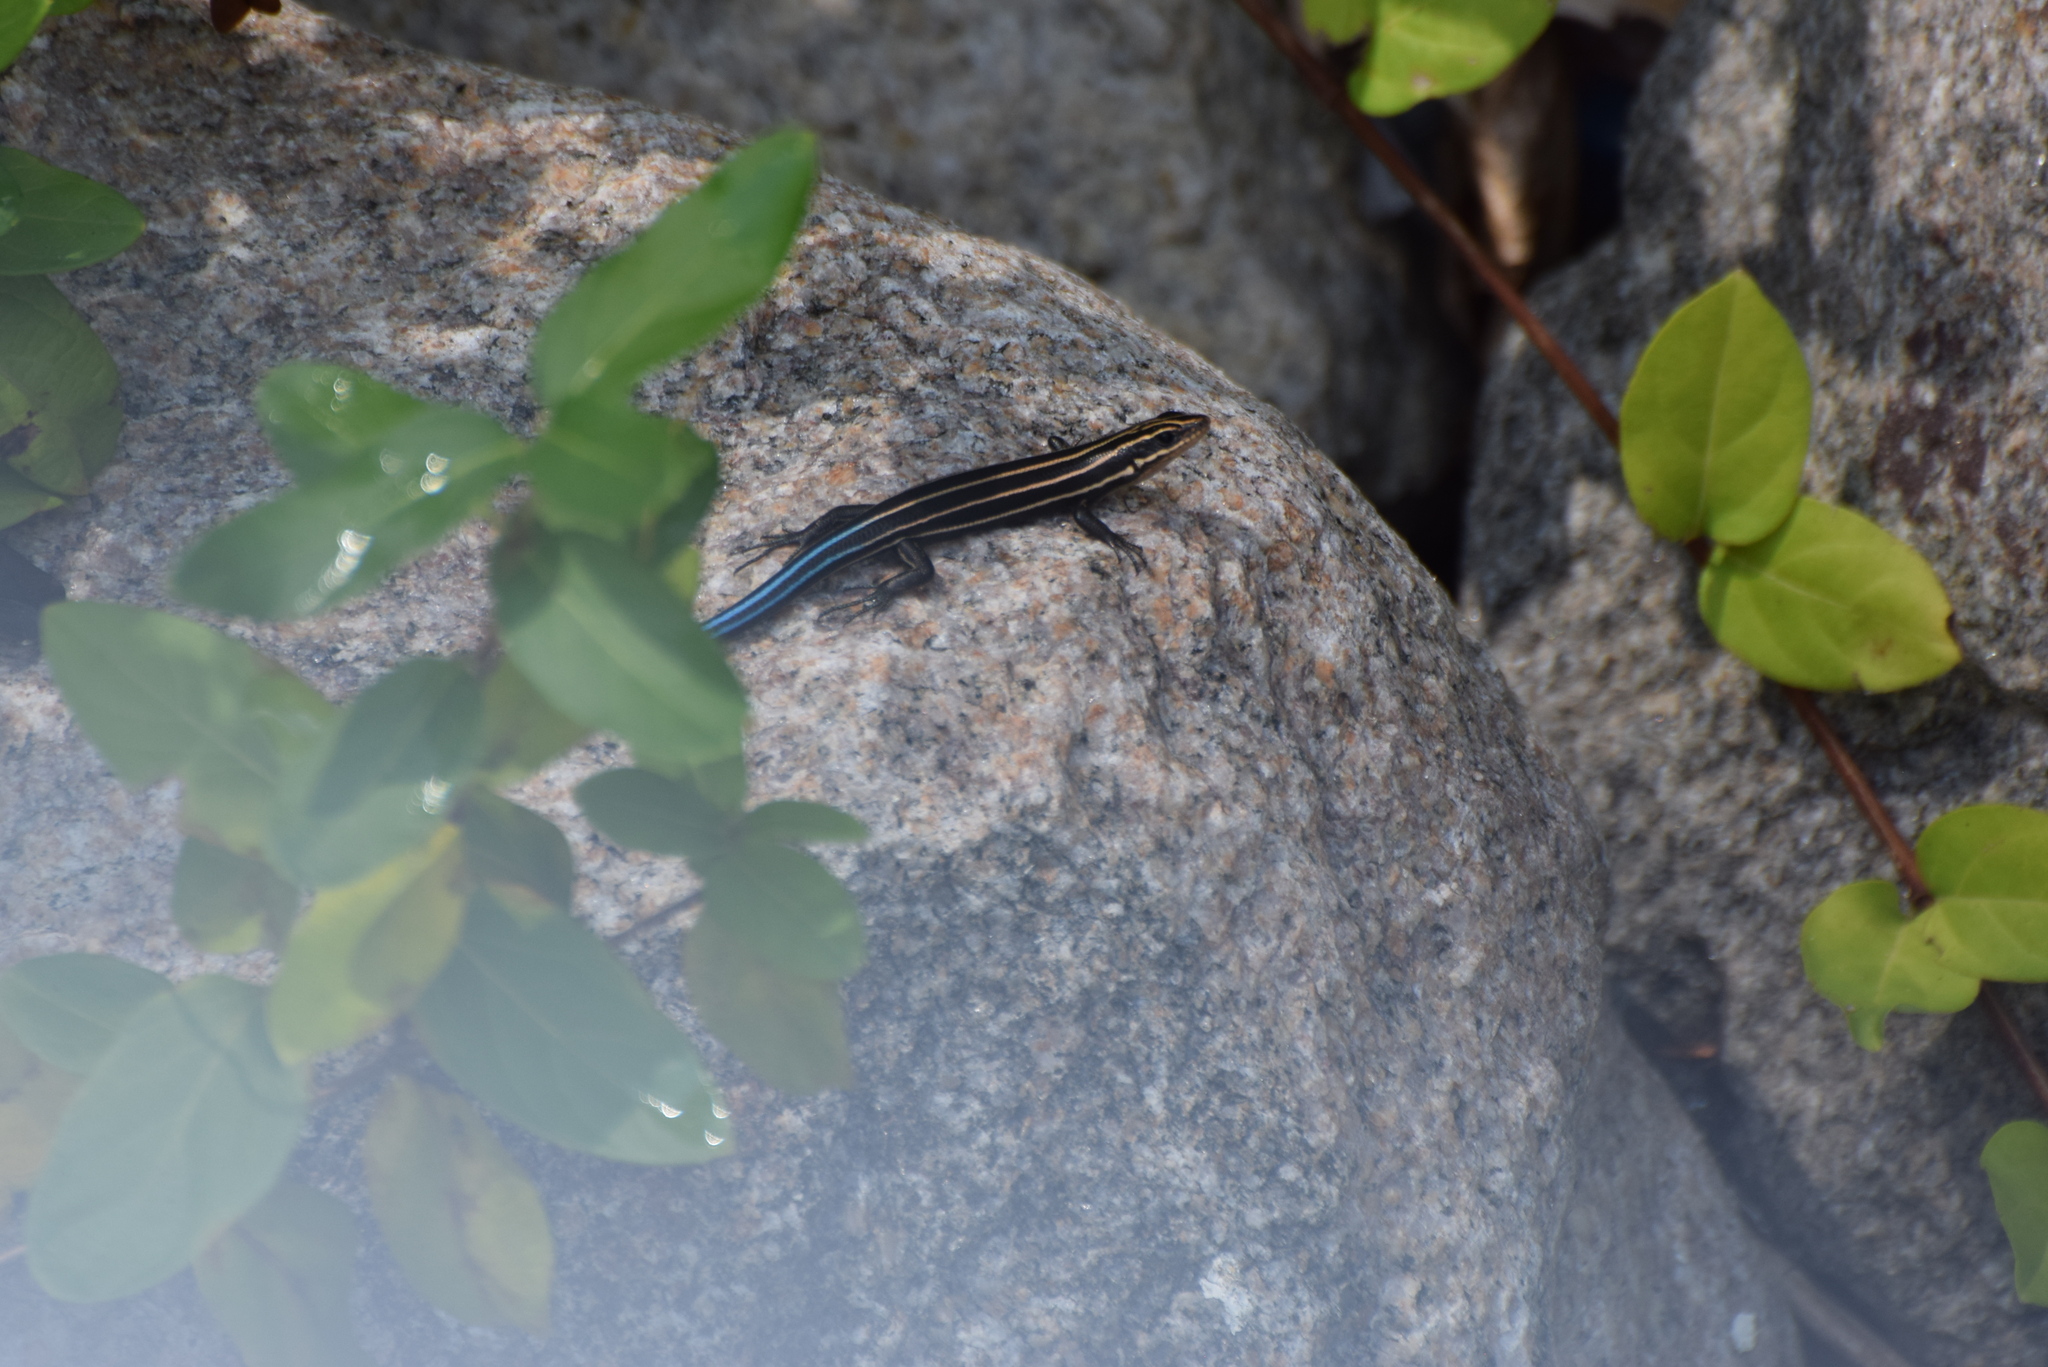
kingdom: Animalia
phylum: Chordata
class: Squamata
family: Scincidae
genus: Plestiodon
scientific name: Plestiodon fasciatus
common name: Five-lined skink
